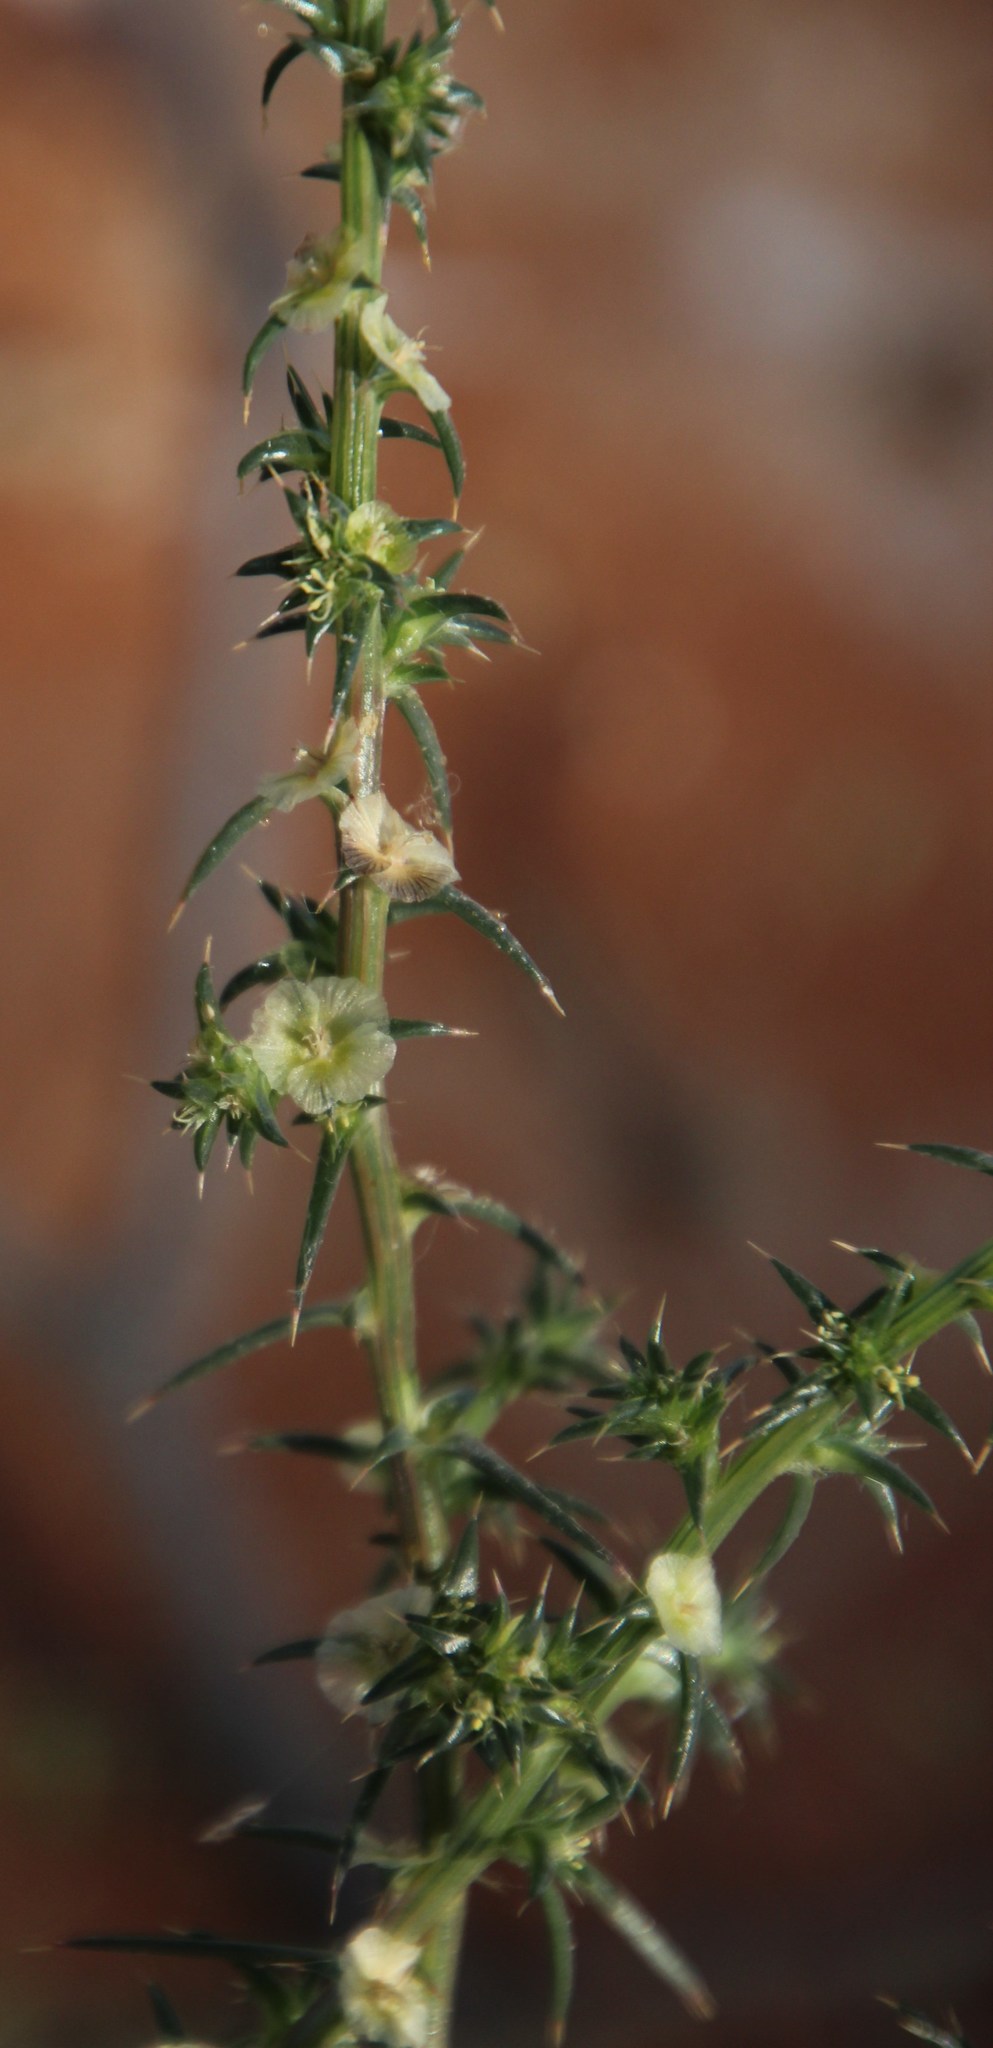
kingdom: Plantae
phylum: Tracheophyta
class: Magnoliopsida
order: Caryophyllales
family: Amaranthaceae
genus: Salsola
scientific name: Salsola kali
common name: Saltwort
